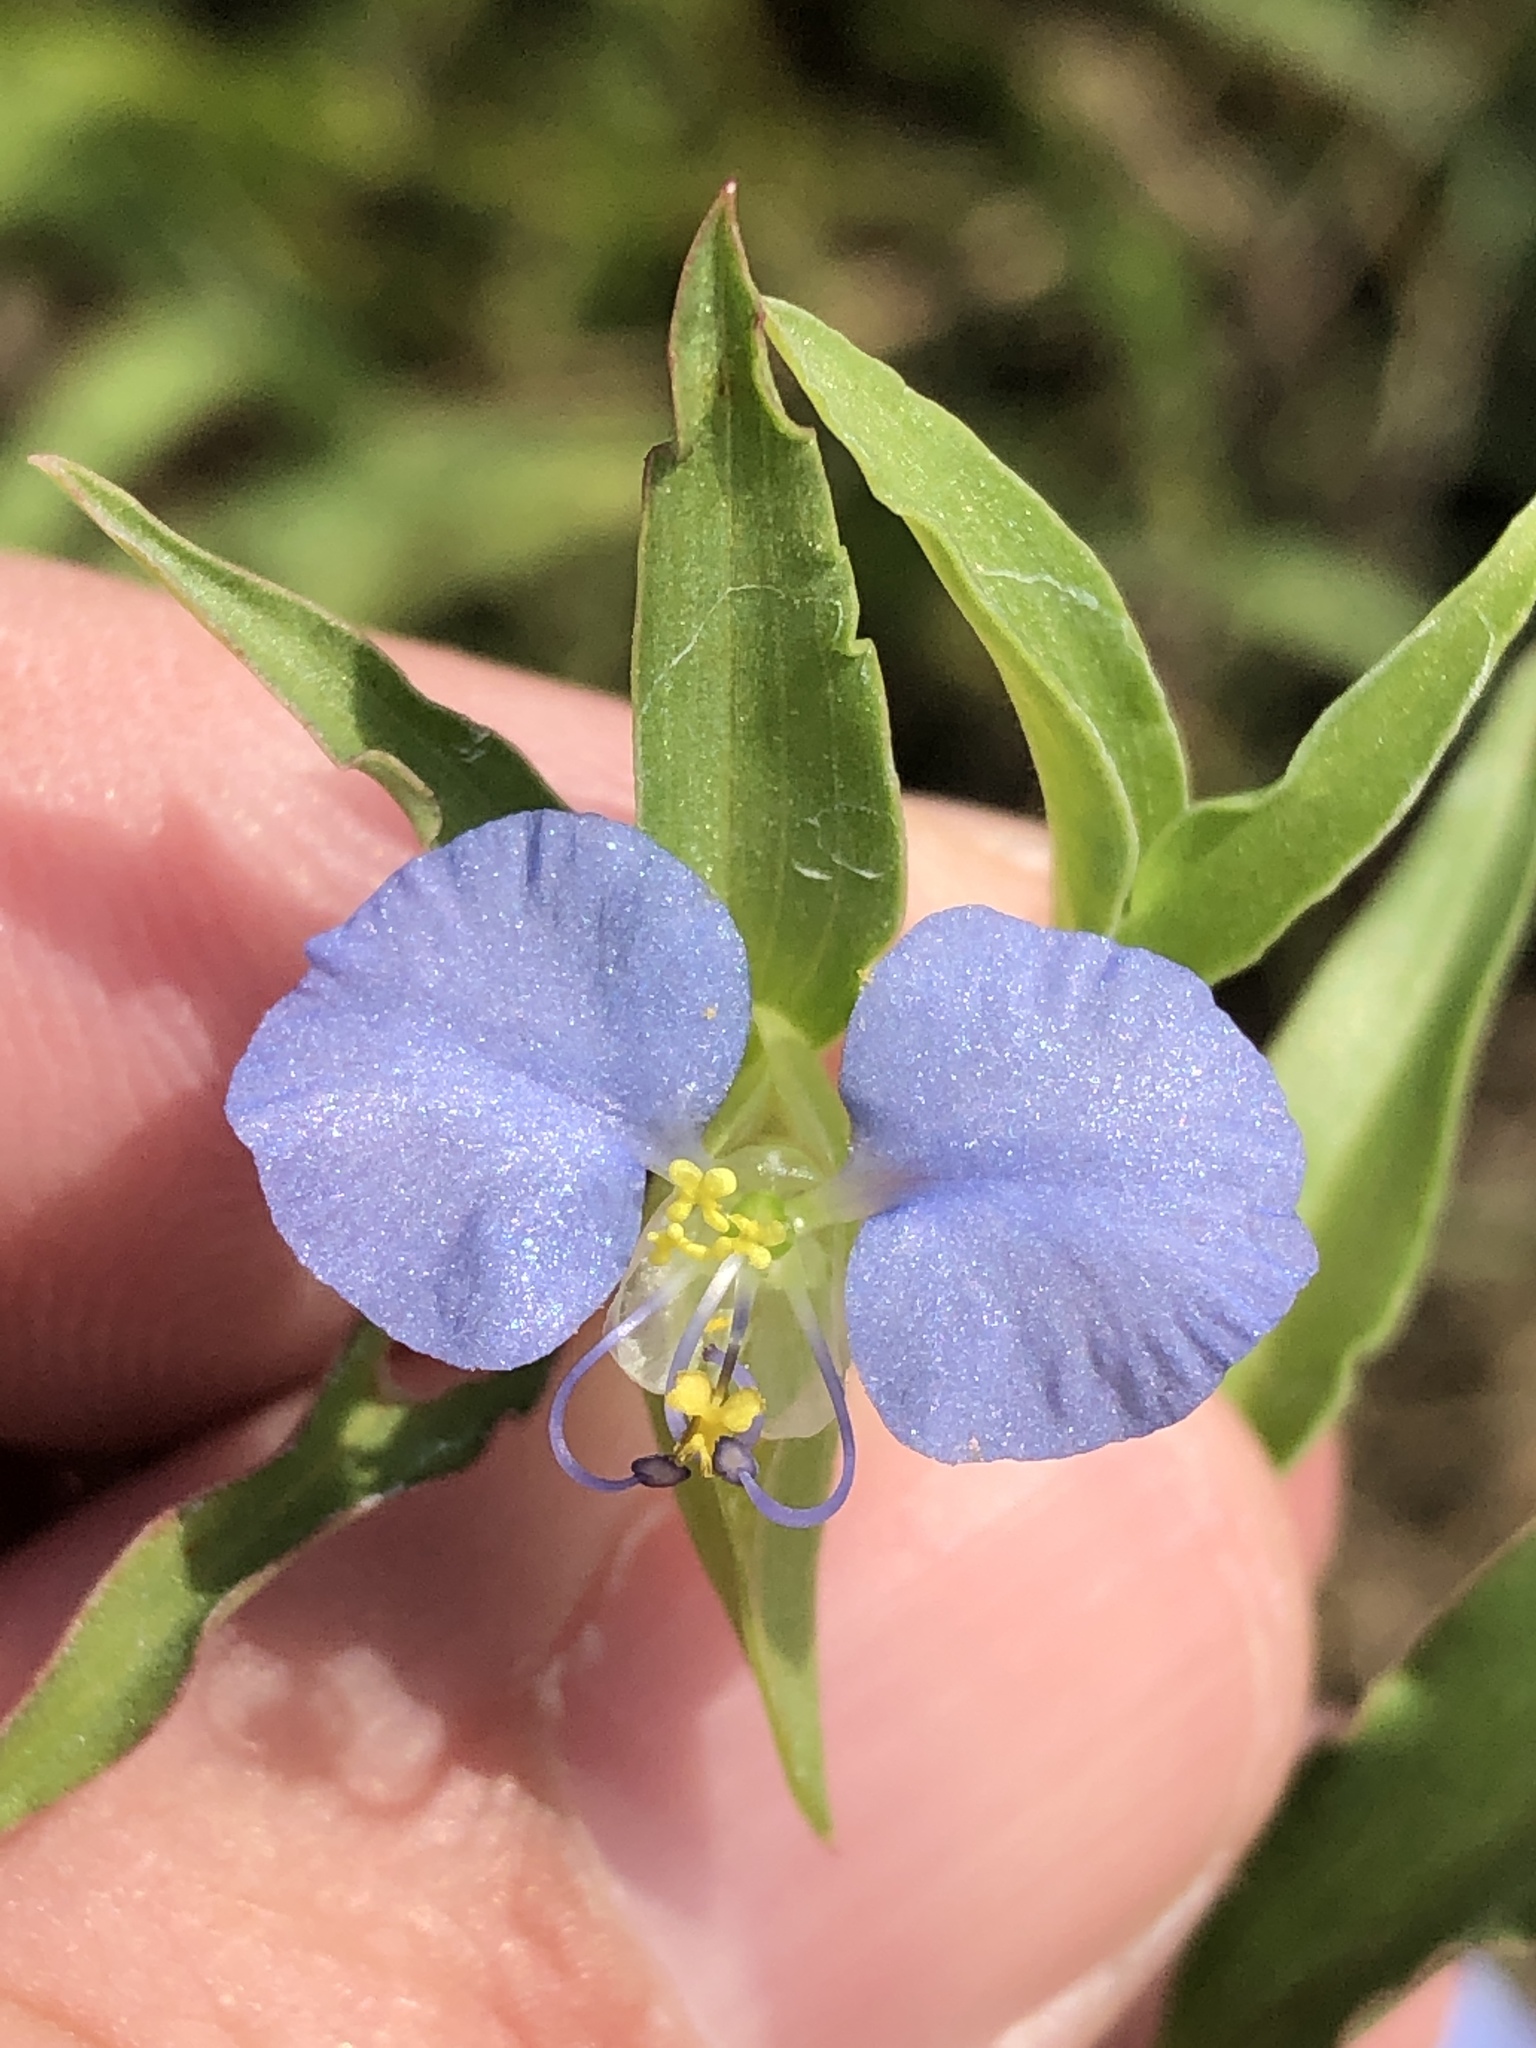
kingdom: Plantae
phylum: Tracheophyta
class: Liliopsida
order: Commelinales
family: Commelinaceae
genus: Commelina
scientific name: Commelina erecta
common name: Blousel blommetjie
